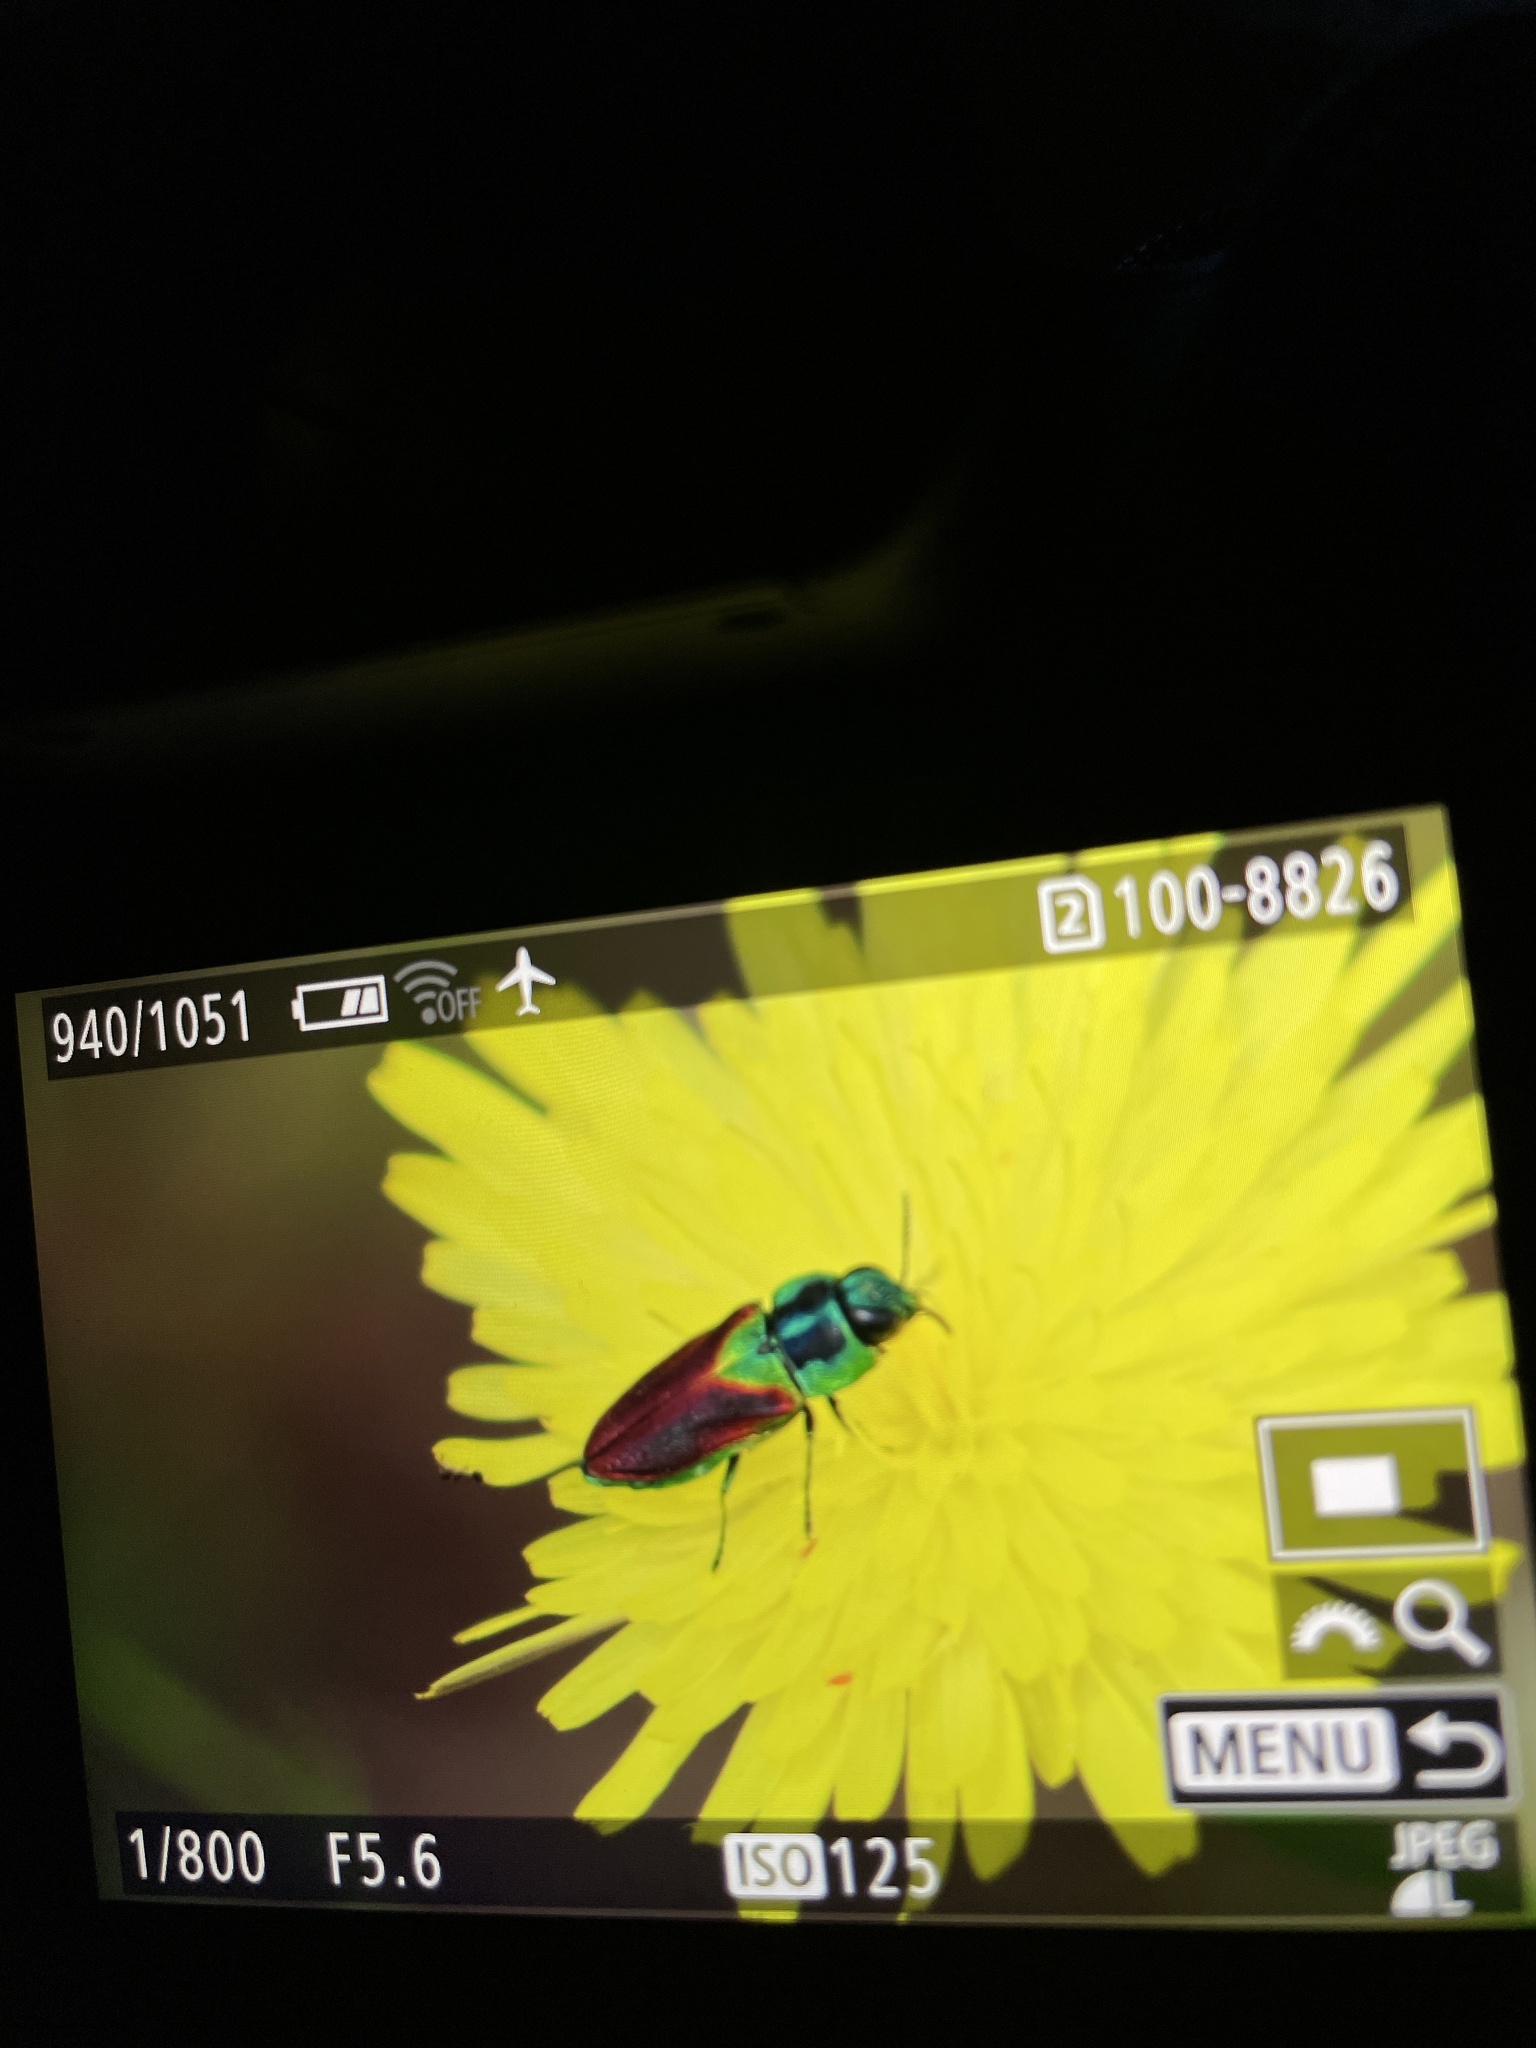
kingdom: Animalia
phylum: Arthropoda
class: Insecta
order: Coleoptera
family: Buprestidae
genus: Anthaxia
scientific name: Anthaxia passerinii
